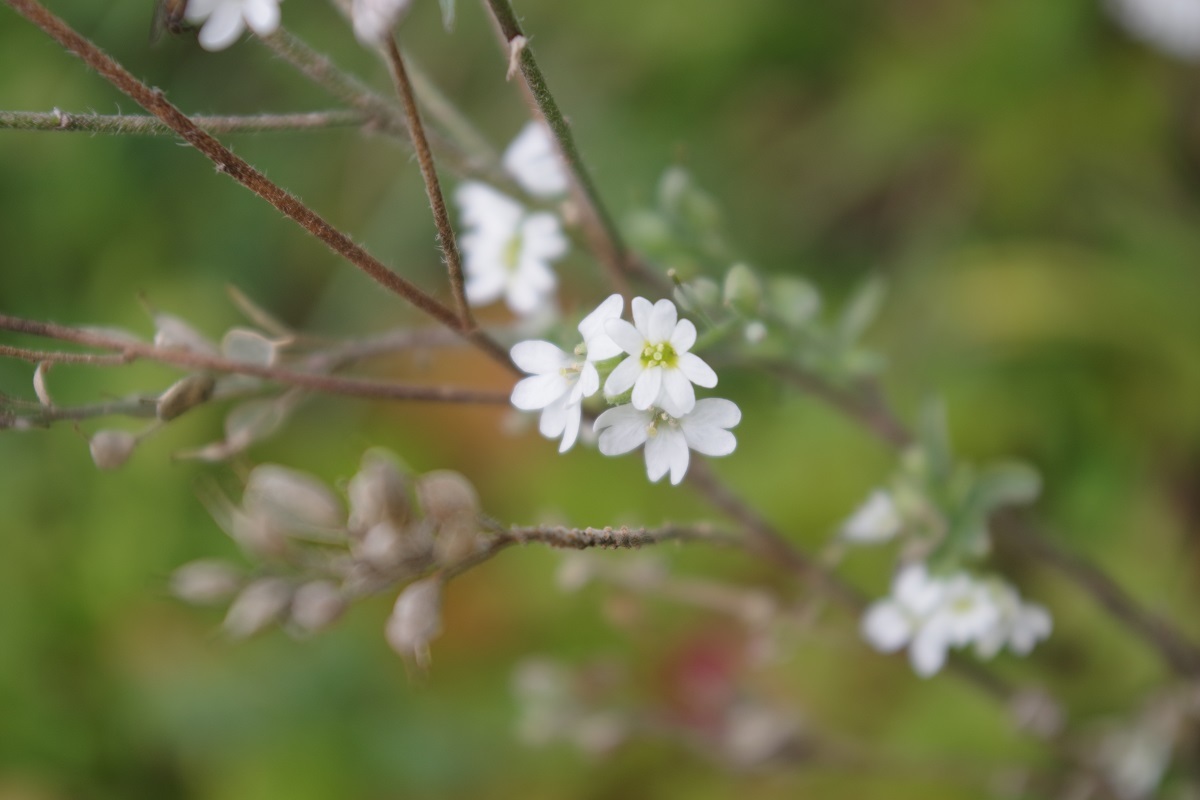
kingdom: Plantae
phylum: Tracheophyta
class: Magnoliopsida
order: Brassicales
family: Brassicaceae
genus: Berteroa
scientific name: Berteroa incana
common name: Hoary alison
